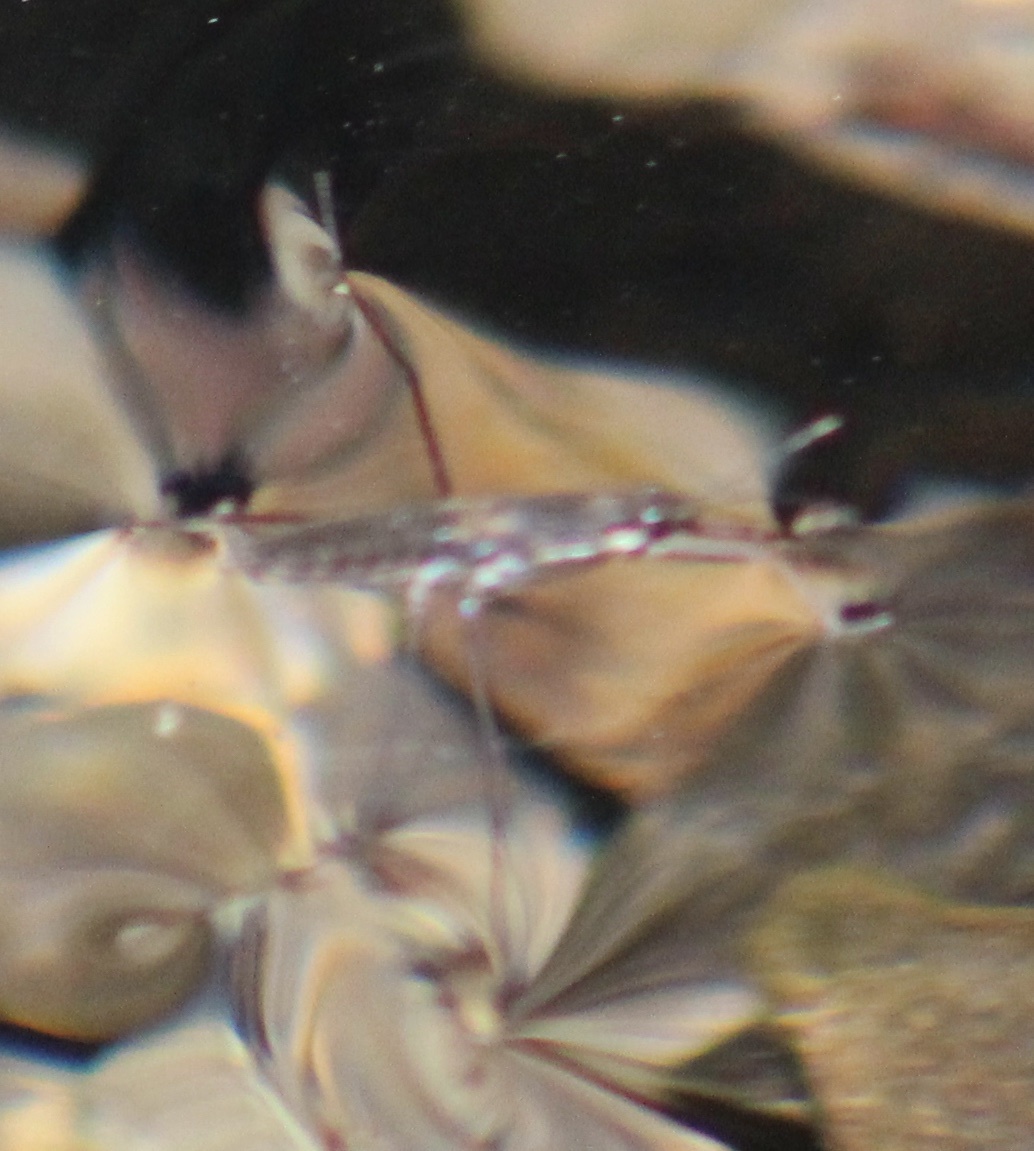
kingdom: Animalia
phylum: Arthropoda
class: Insecta
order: Hemiptera
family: Gerridae
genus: Aquarius
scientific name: Aquarius remigis
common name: Common water strider
